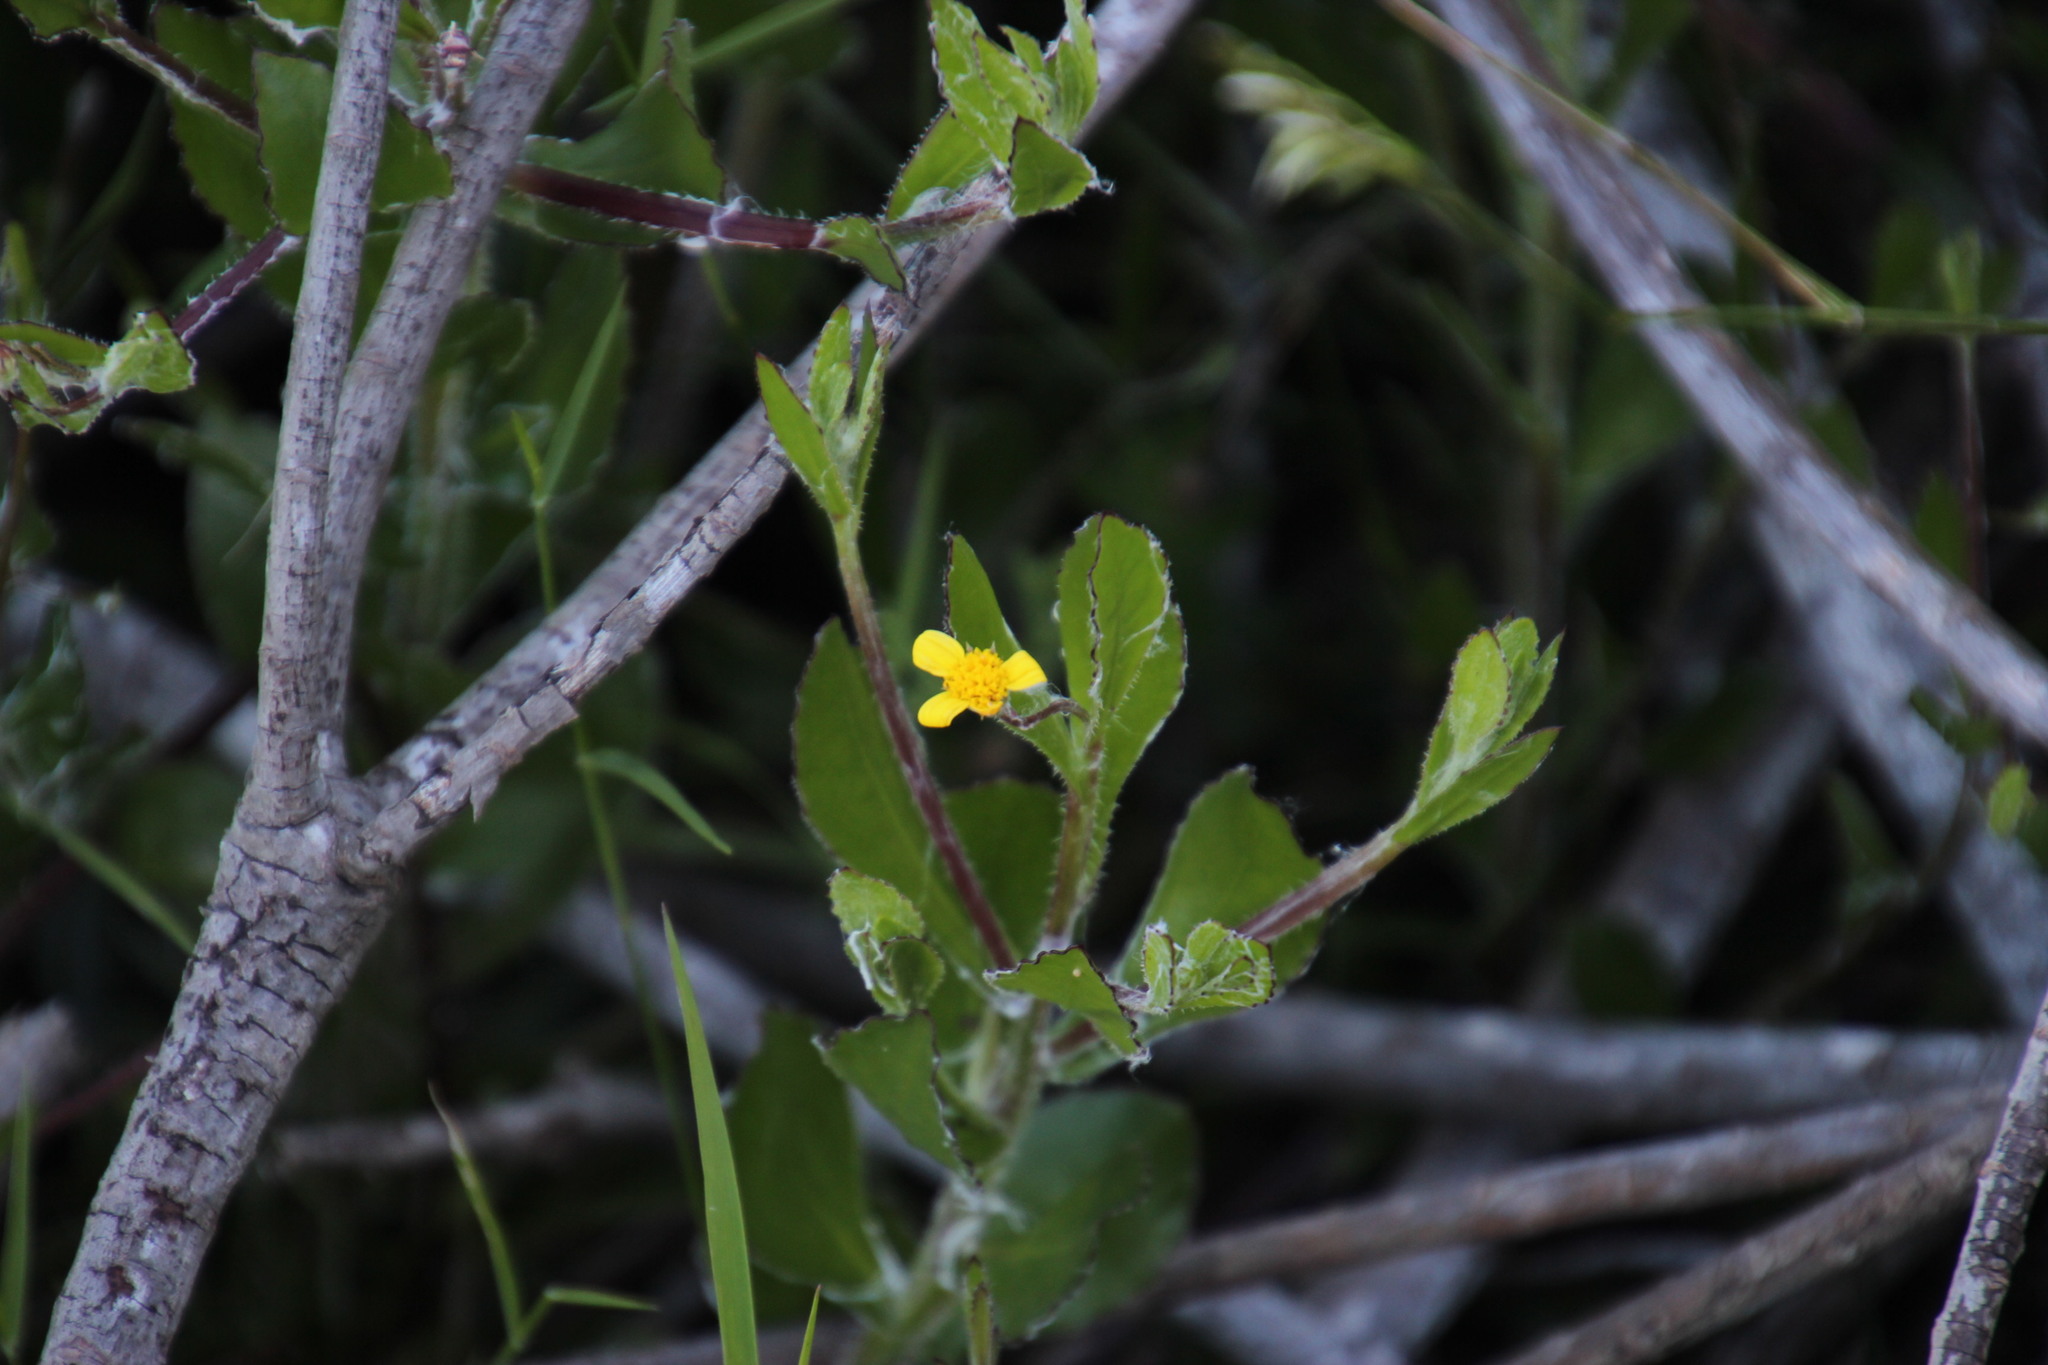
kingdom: Plantae
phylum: Tracheophyta
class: Magnoliopsida
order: Asterales
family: Asteraceae
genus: Osteospermum
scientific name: Osteospermum ciliatum
